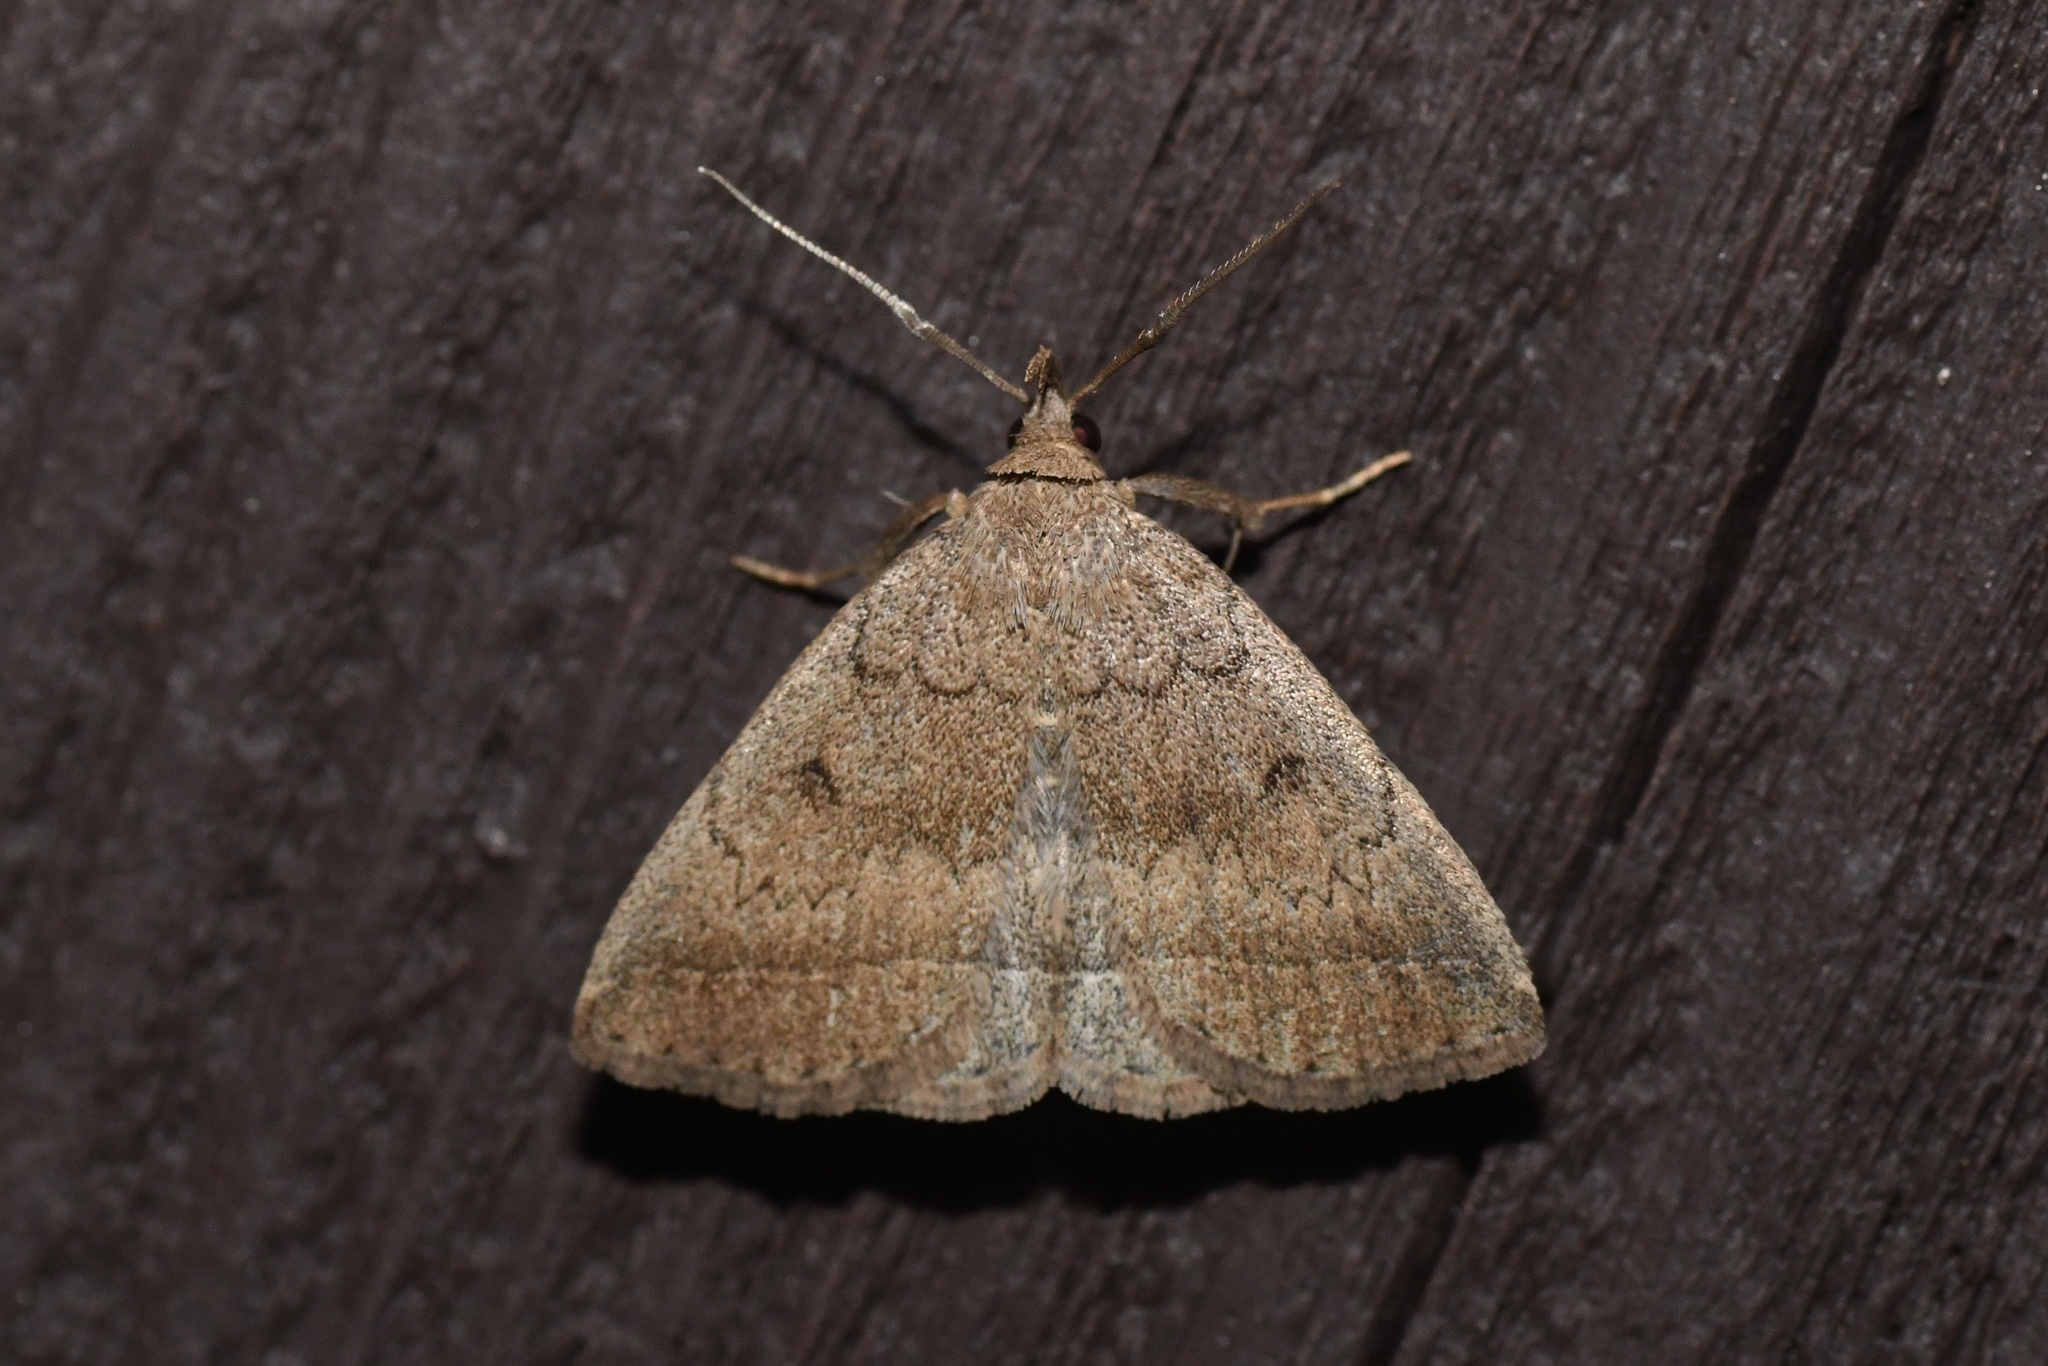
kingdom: Animalia
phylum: Arthropoda
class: Insecta
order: Lepidoptera
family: Erebidae
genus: Zanclognatha
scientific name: Zanclognatha jacchusalis
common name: Yellowish zanclognatha
